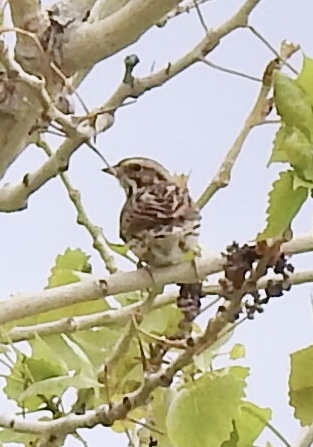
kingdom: Animalia
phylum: Chordata
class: Aves
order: Passeriformes
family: Passerellidae
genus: Passerculus
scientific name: Passerculus sandwichensis
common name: Savannah sparrow
